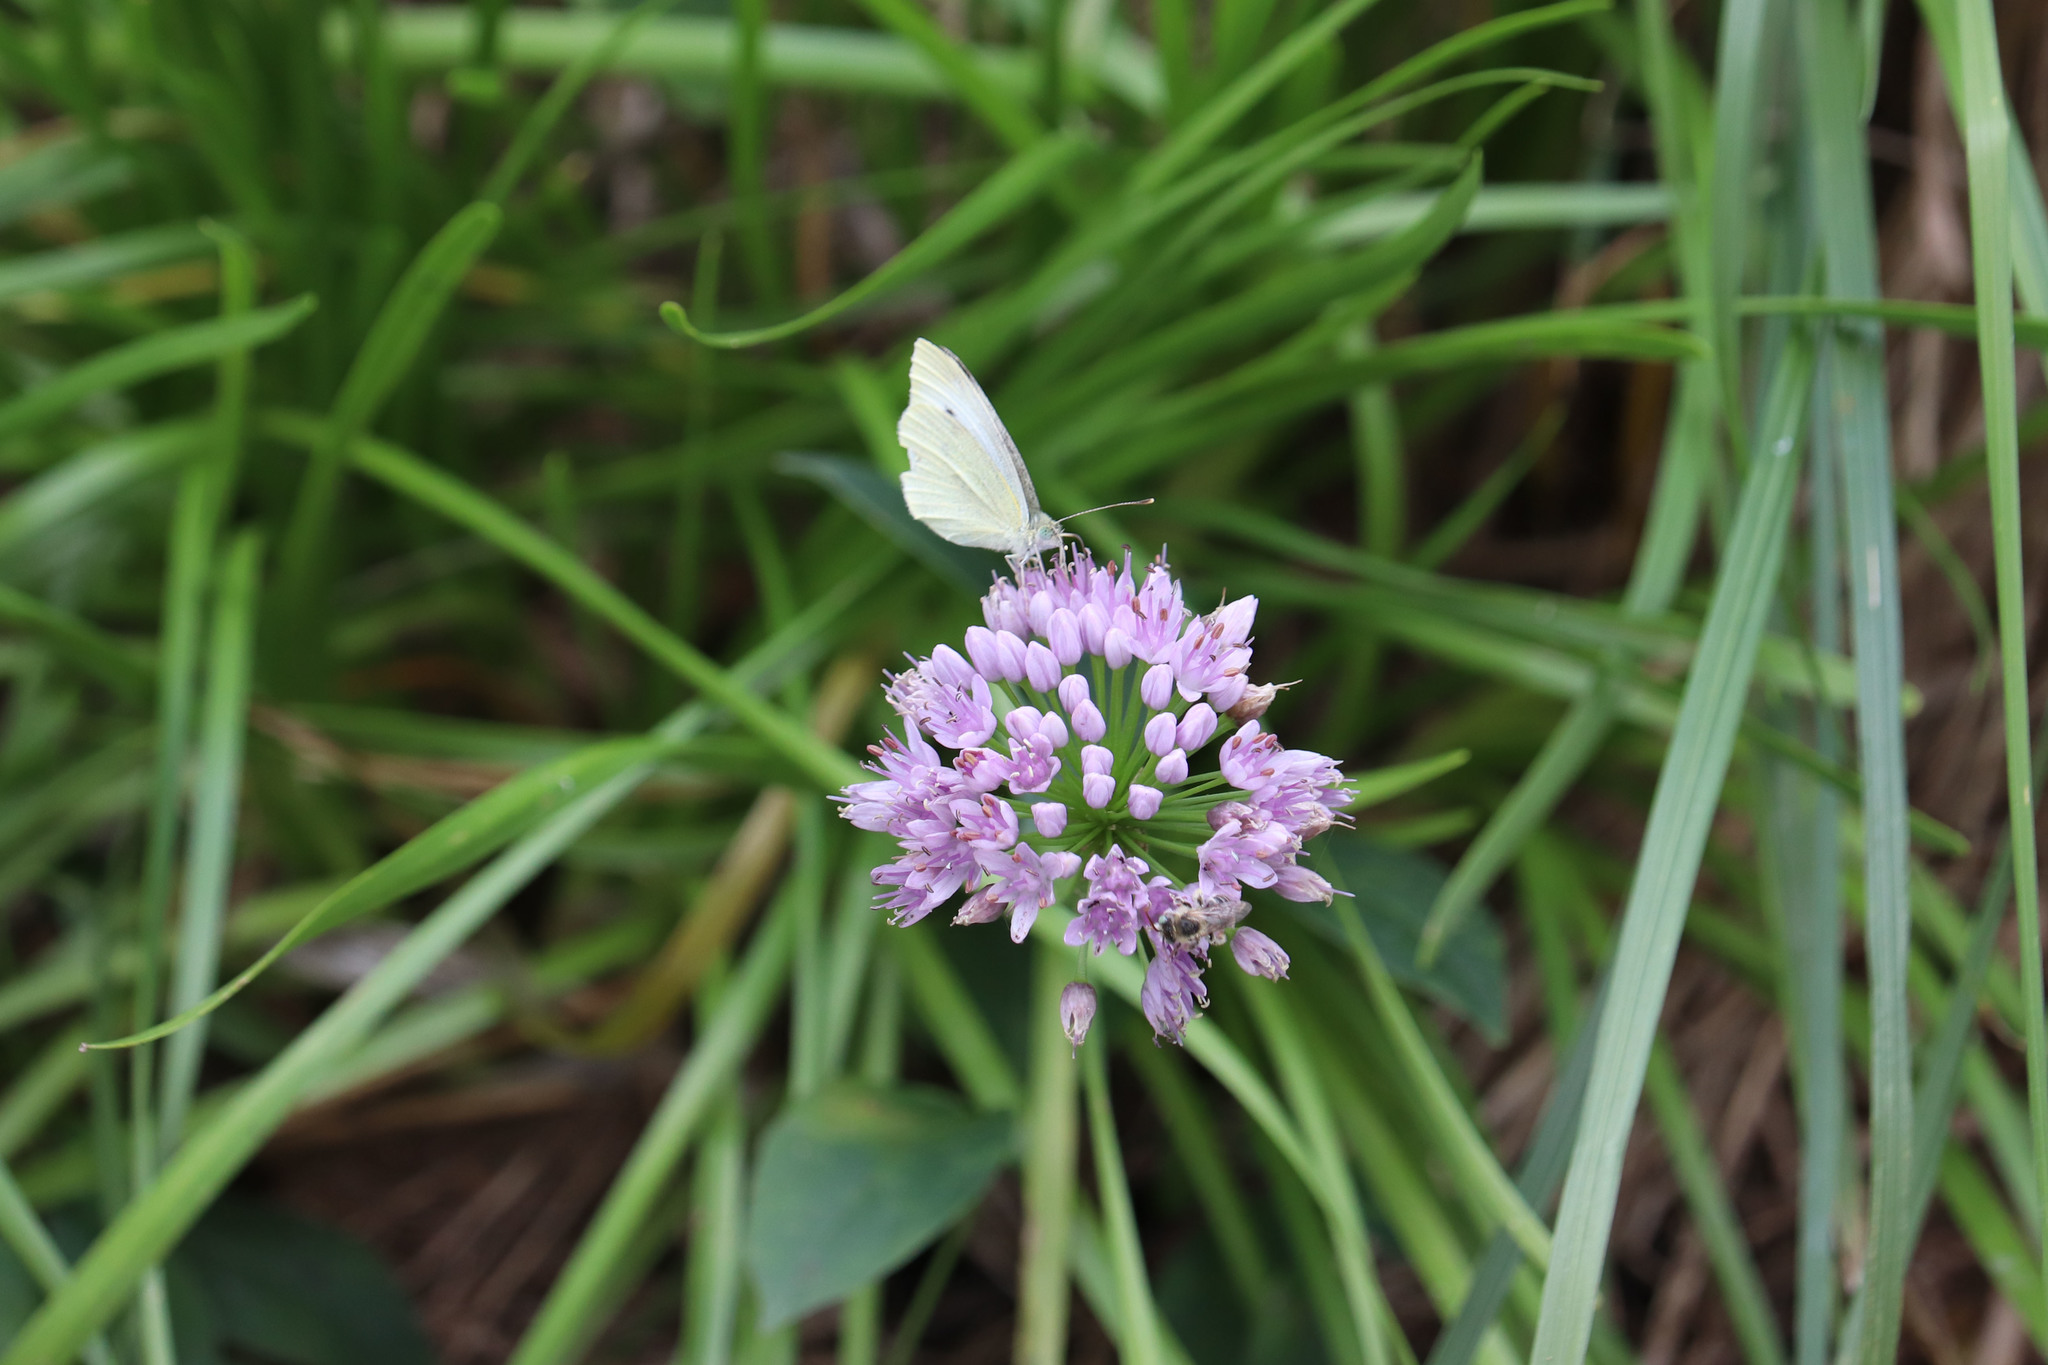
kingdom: Animalia
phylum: Arthropoda
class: Insecta
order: Lepidoptera
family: Pieridae
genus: Pieris
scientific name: Pieris rapae
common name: Small white
